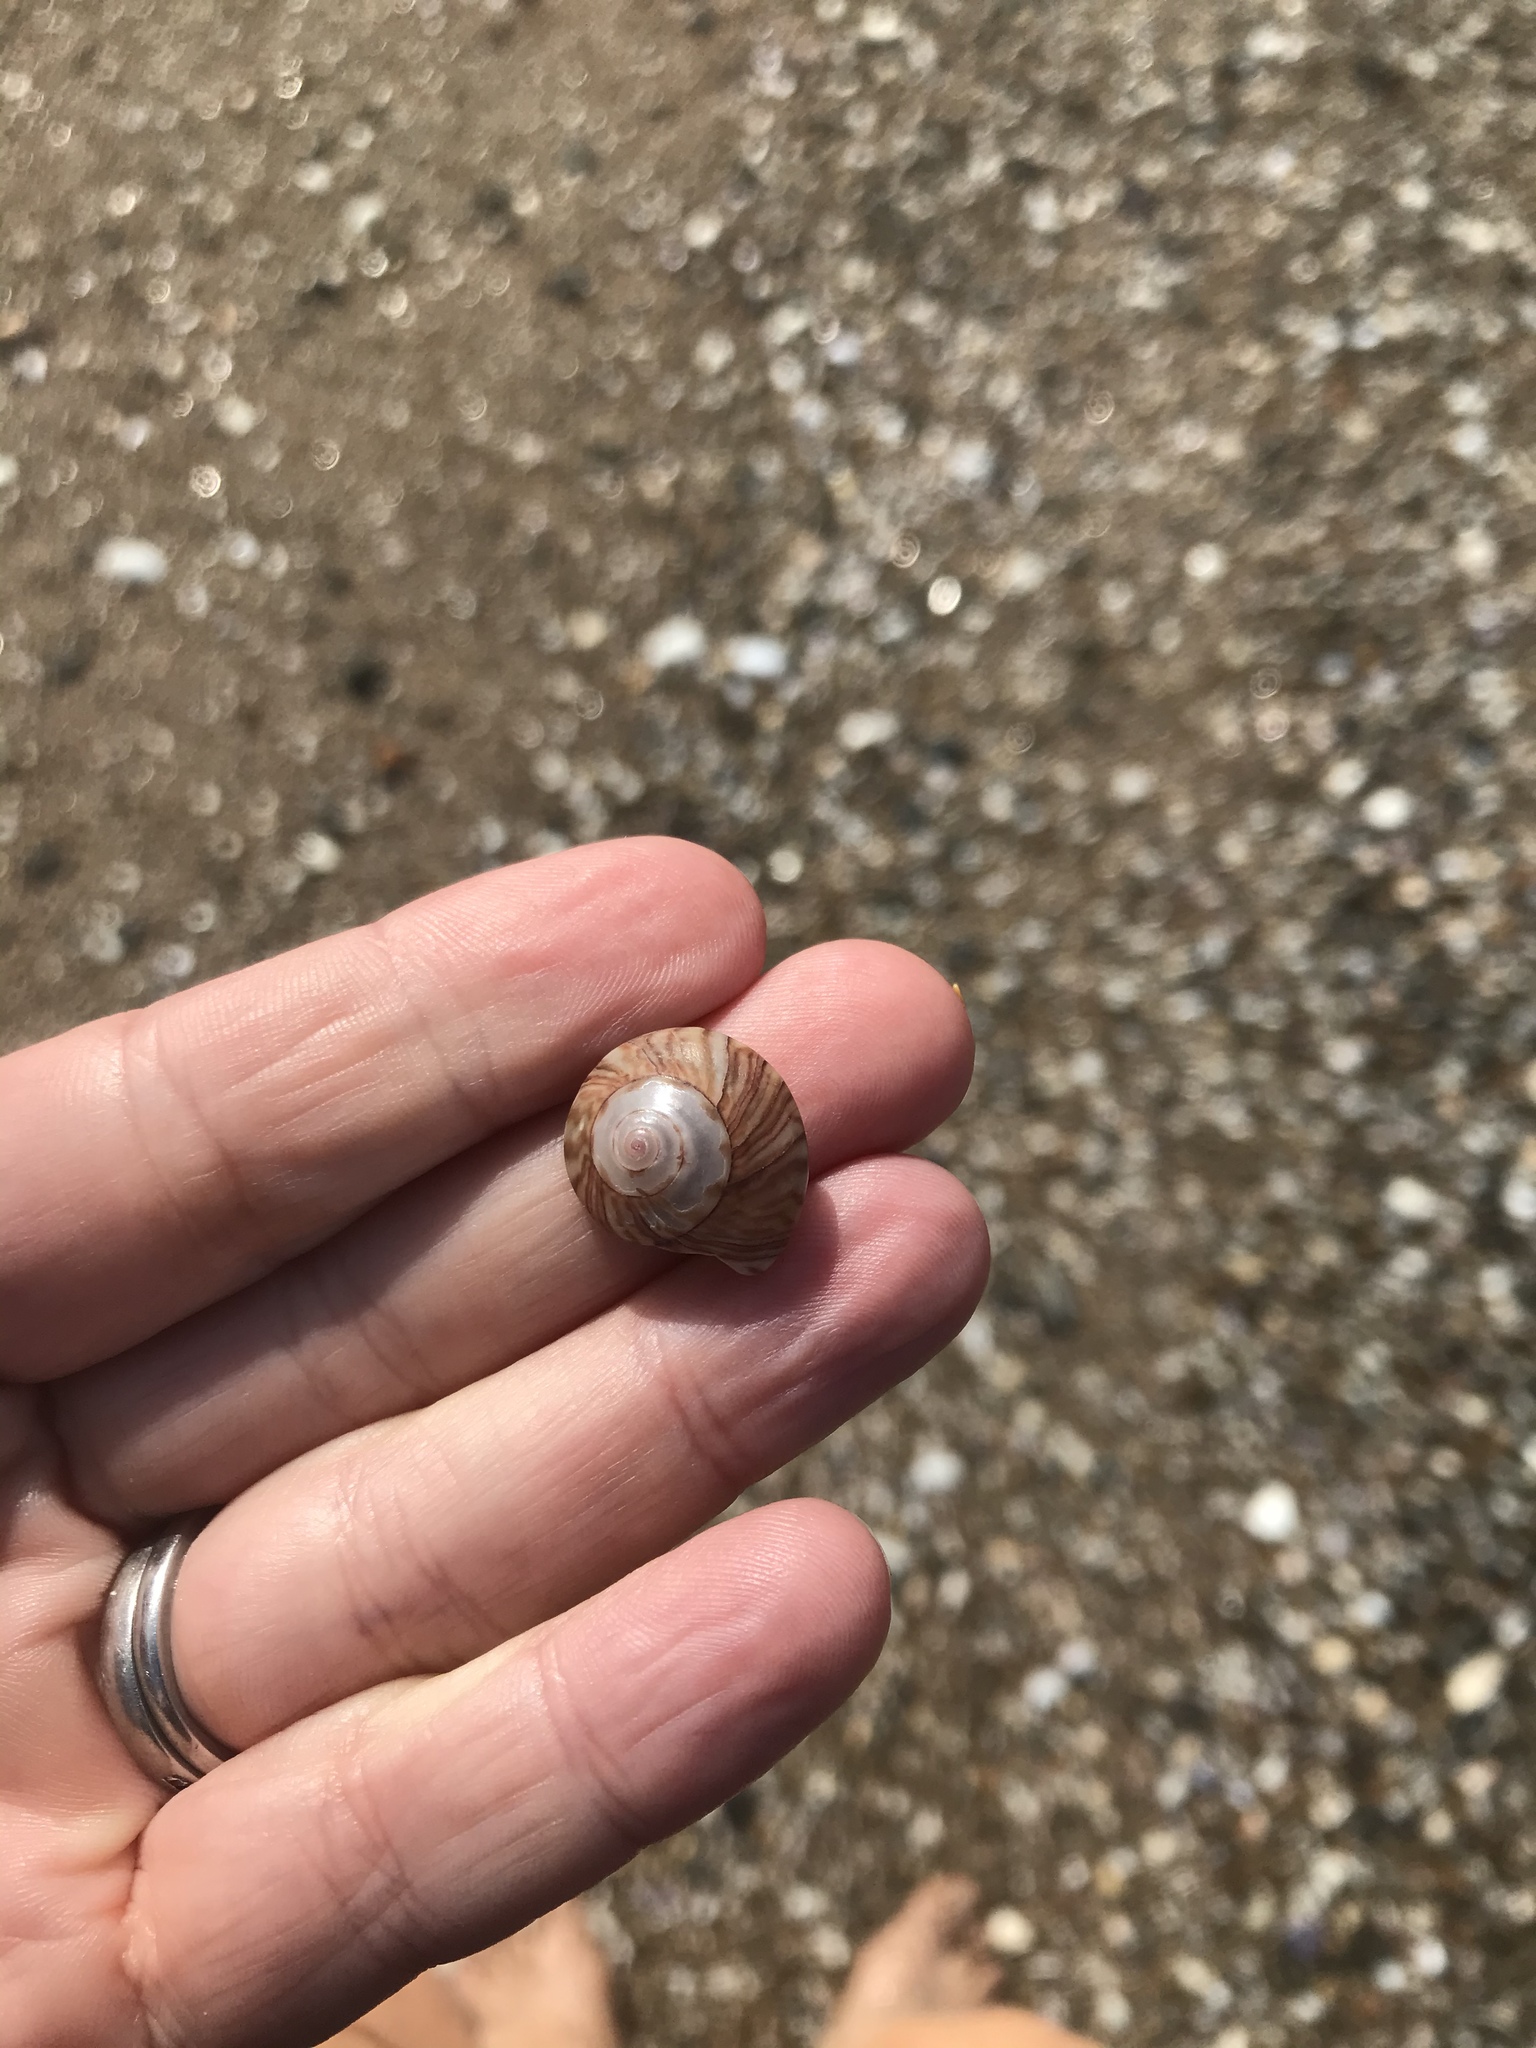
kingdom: Animalia
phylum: Mollusca
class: Gastropoda
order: Trochida
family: Trochidae
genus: Zethalia
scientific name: Zethalia zelandica
